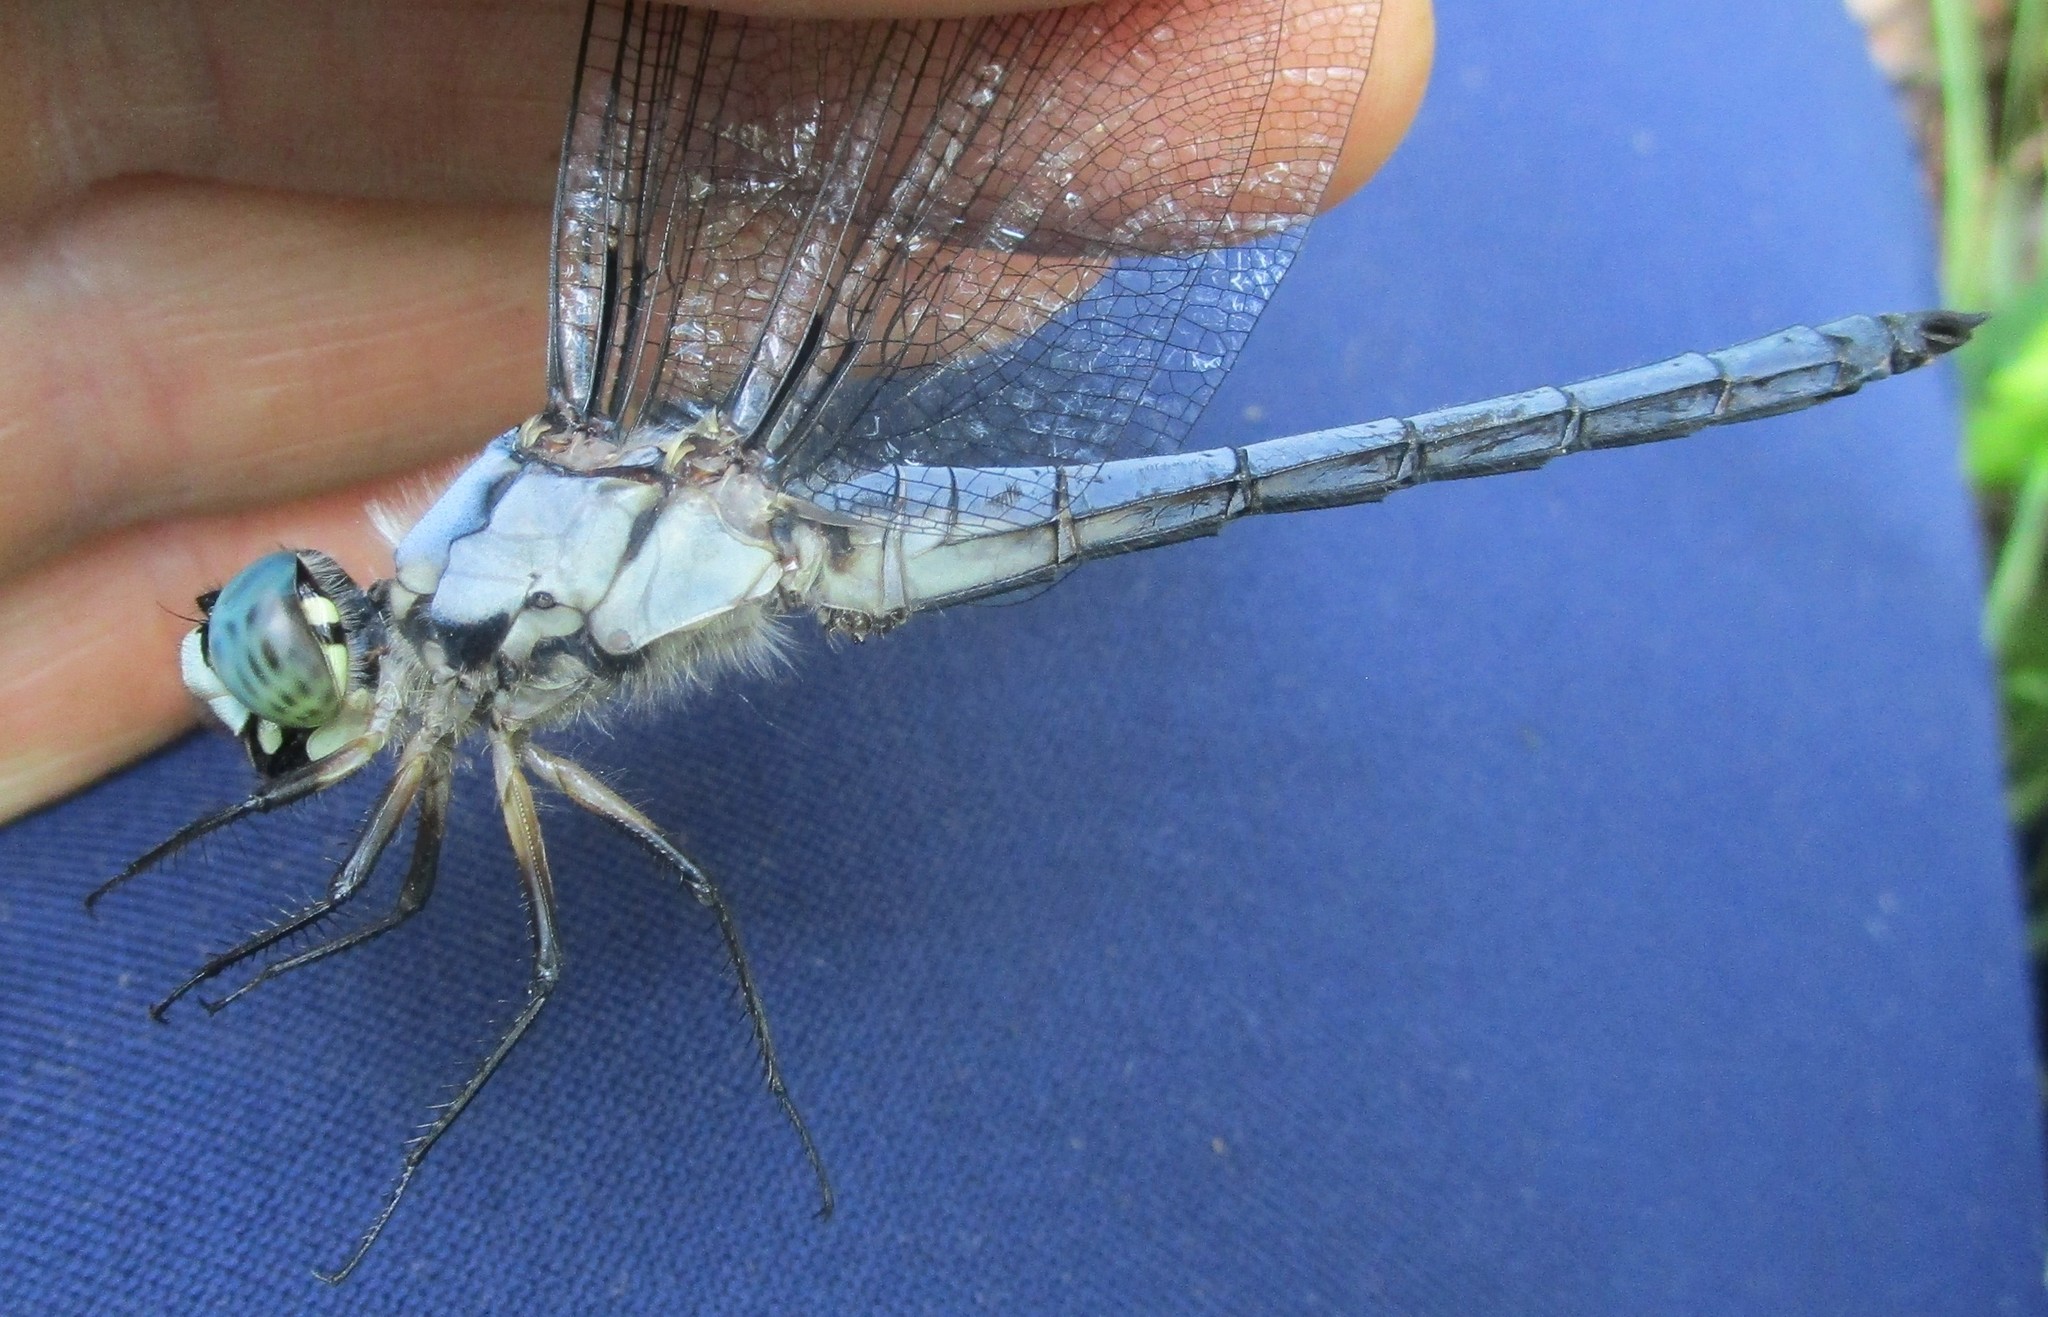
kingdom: Animalia
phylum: Arthropoda
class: Insecta
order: Odonata
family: Libellulidae
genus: Libellula
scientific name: Libellula vibrans
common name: Great blue skimmer
